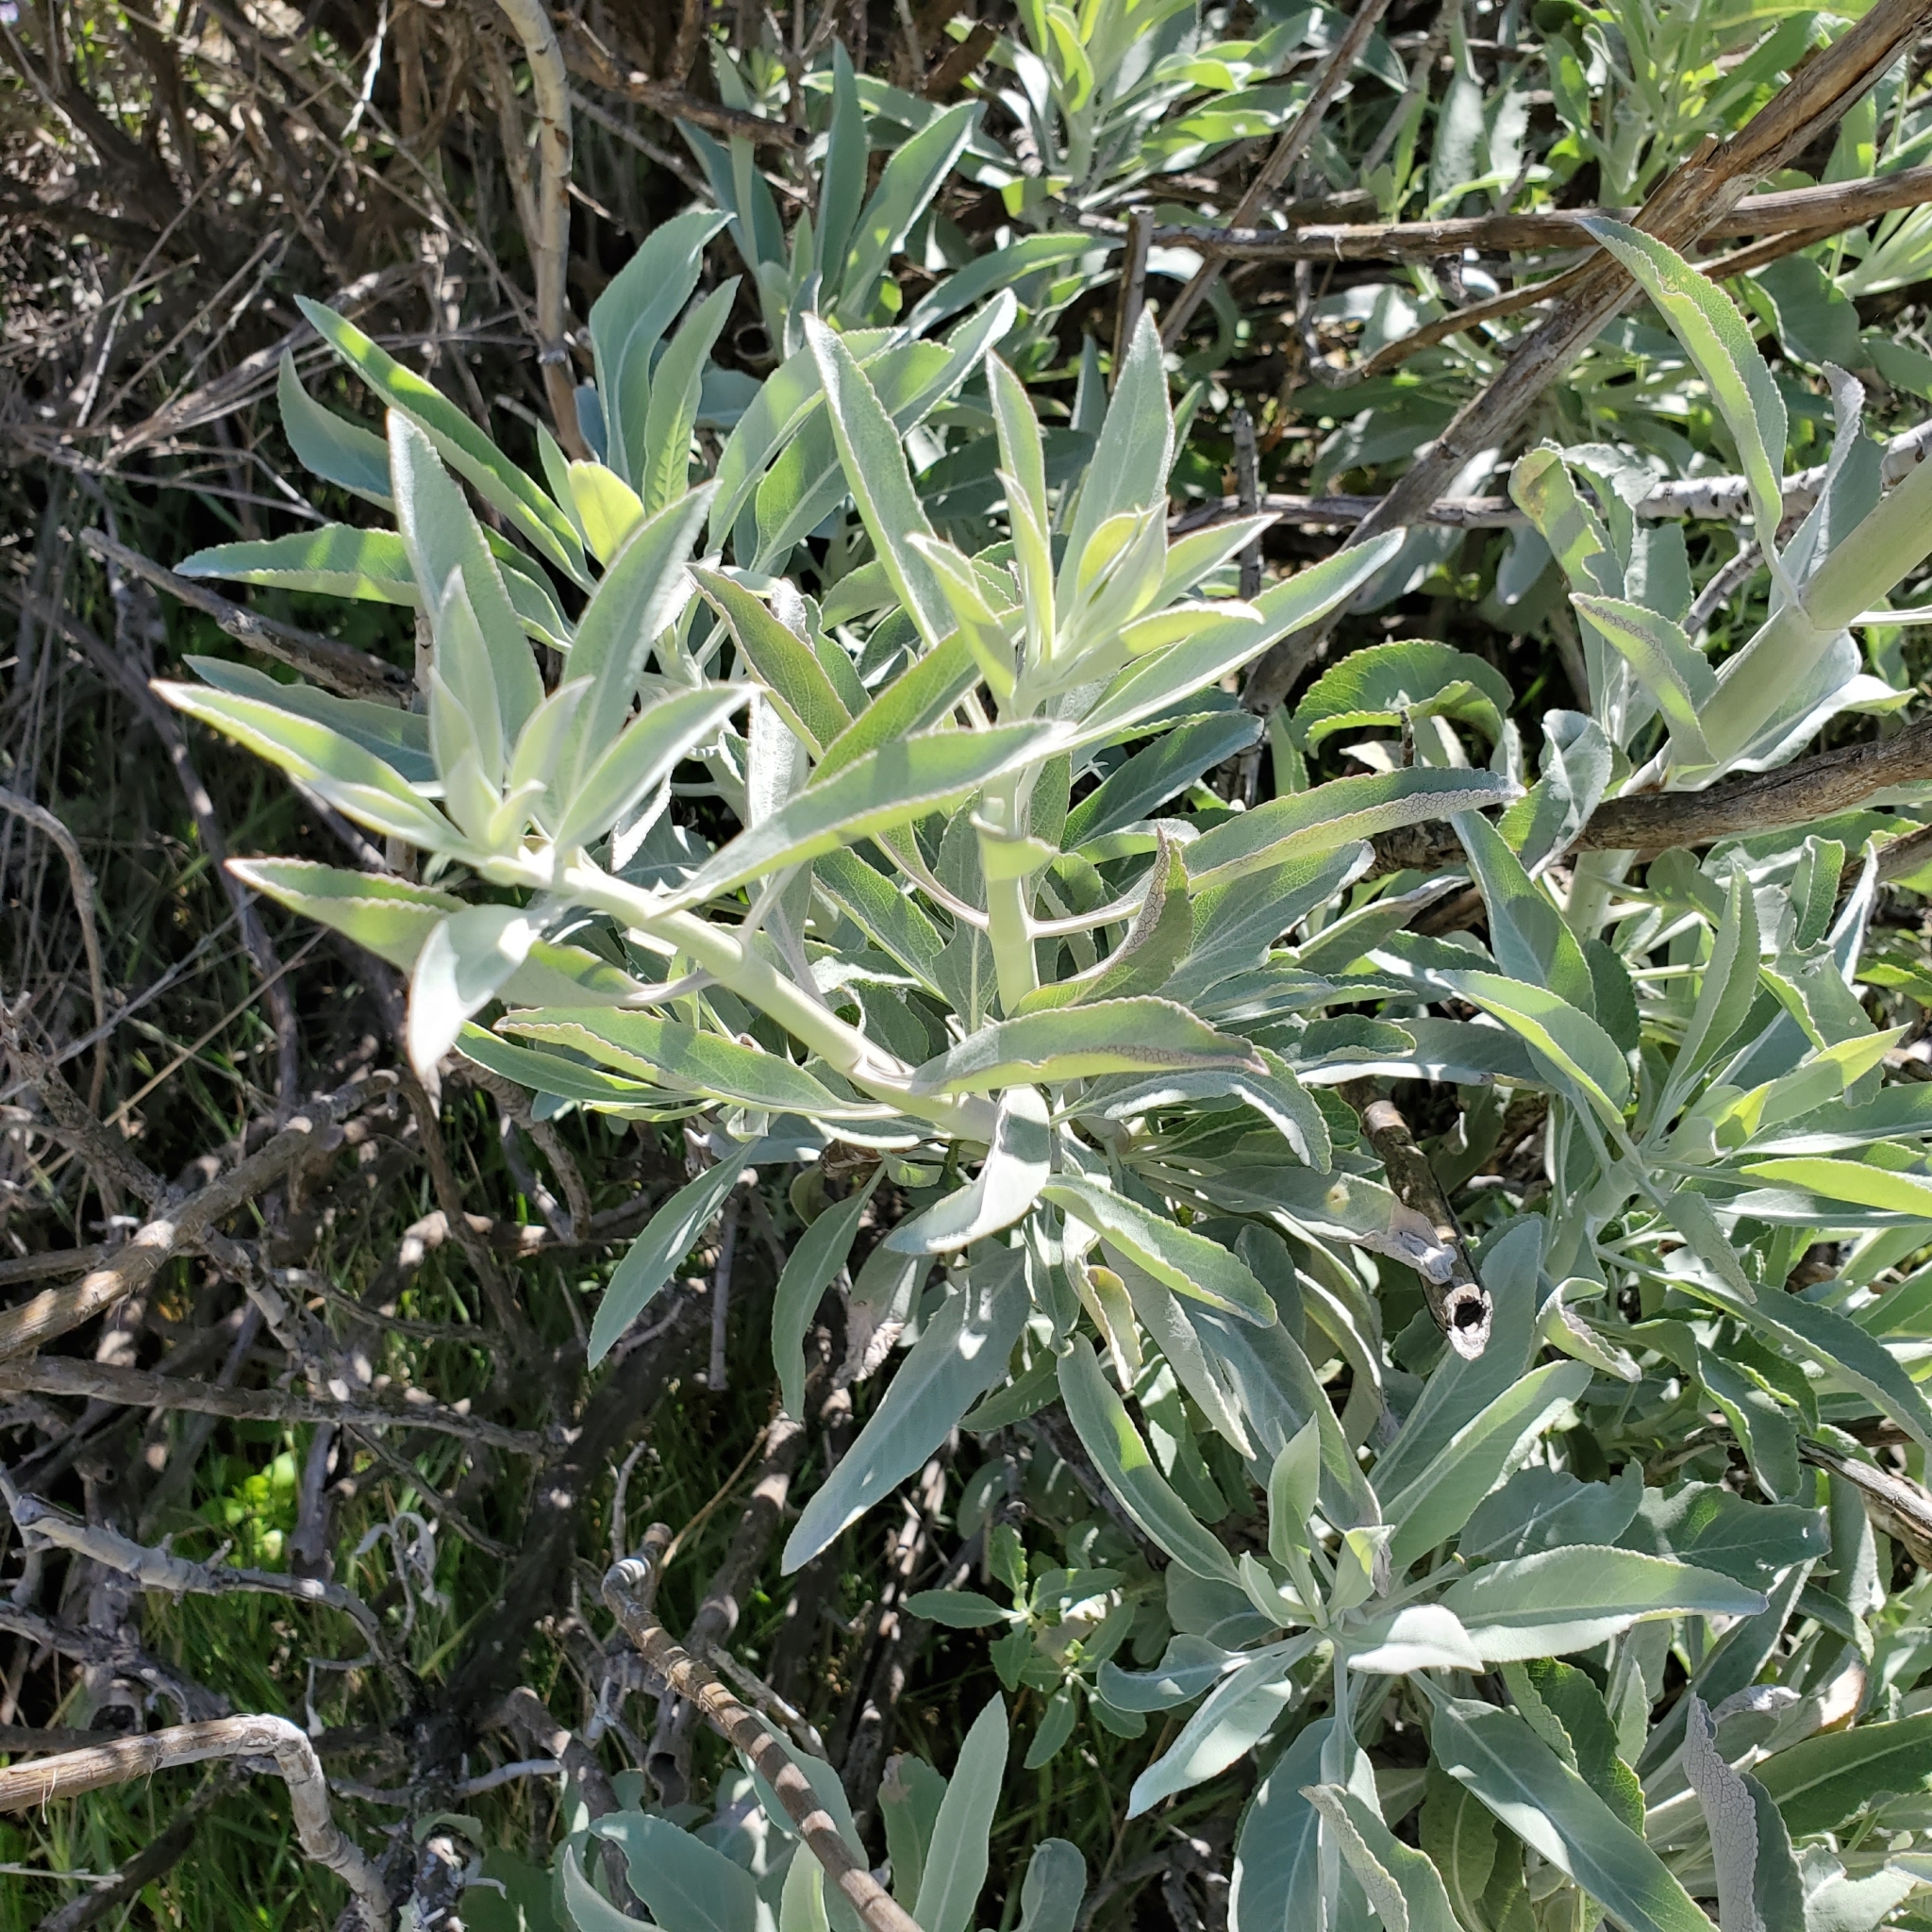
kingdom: Plantae
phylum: Tracheophyta
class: Magnoliopsida
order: Lamiales
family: Lamiaceae
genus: Salvia
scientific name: Salvia apiana
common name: White sage
